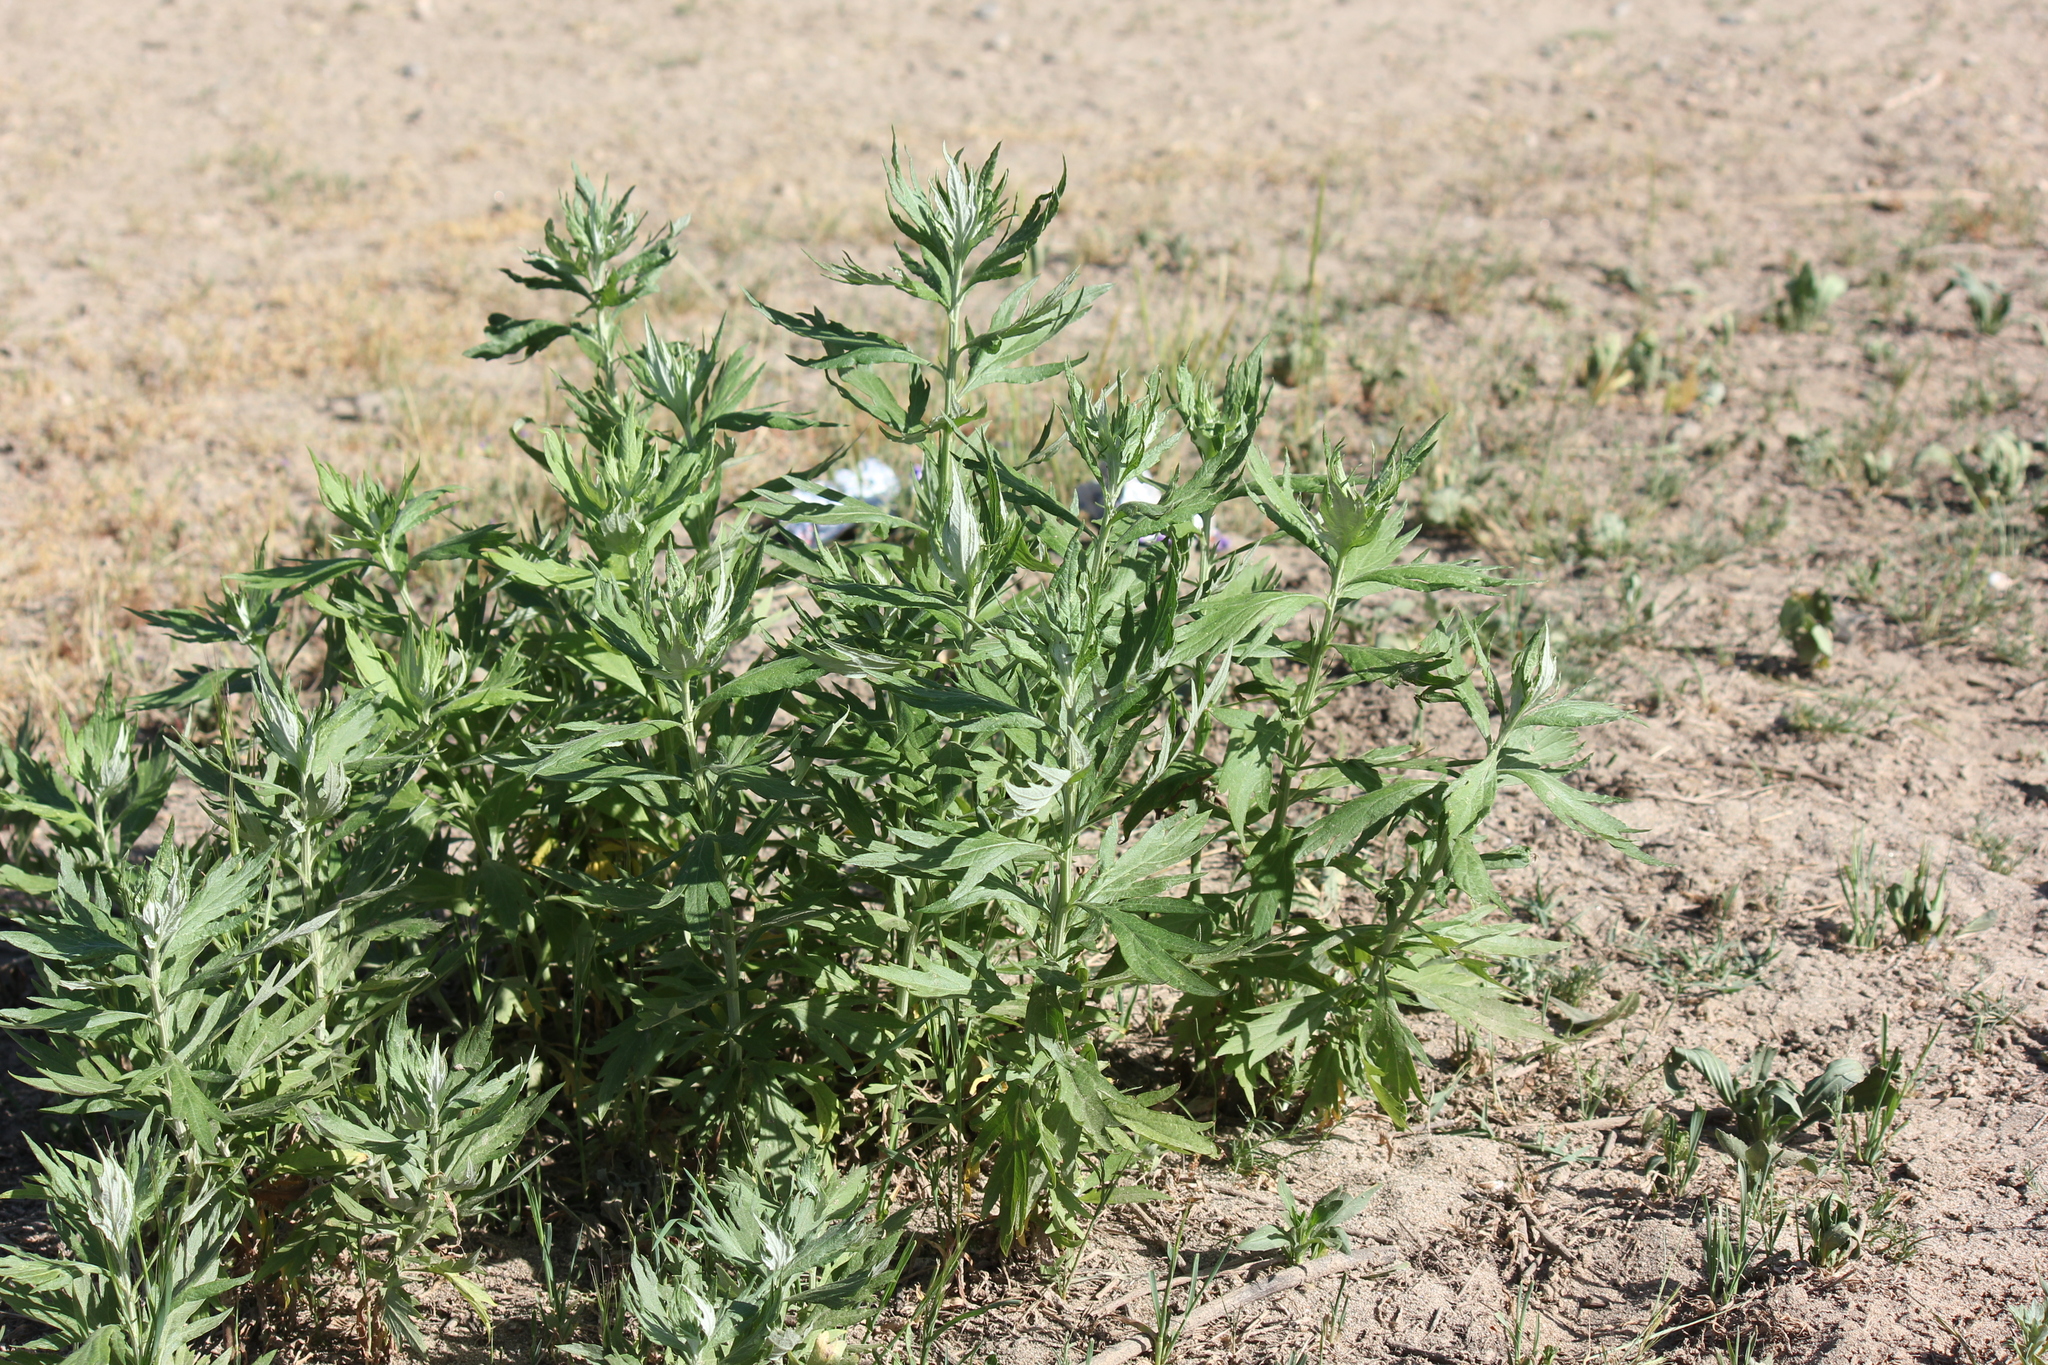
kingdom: Plantae
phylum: Tracheophyta
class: Magnoliopsida
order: Asterales
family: Asteraceae
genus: Artemisia
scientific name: Artemisia douglasiana
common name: Northwest mugwort
